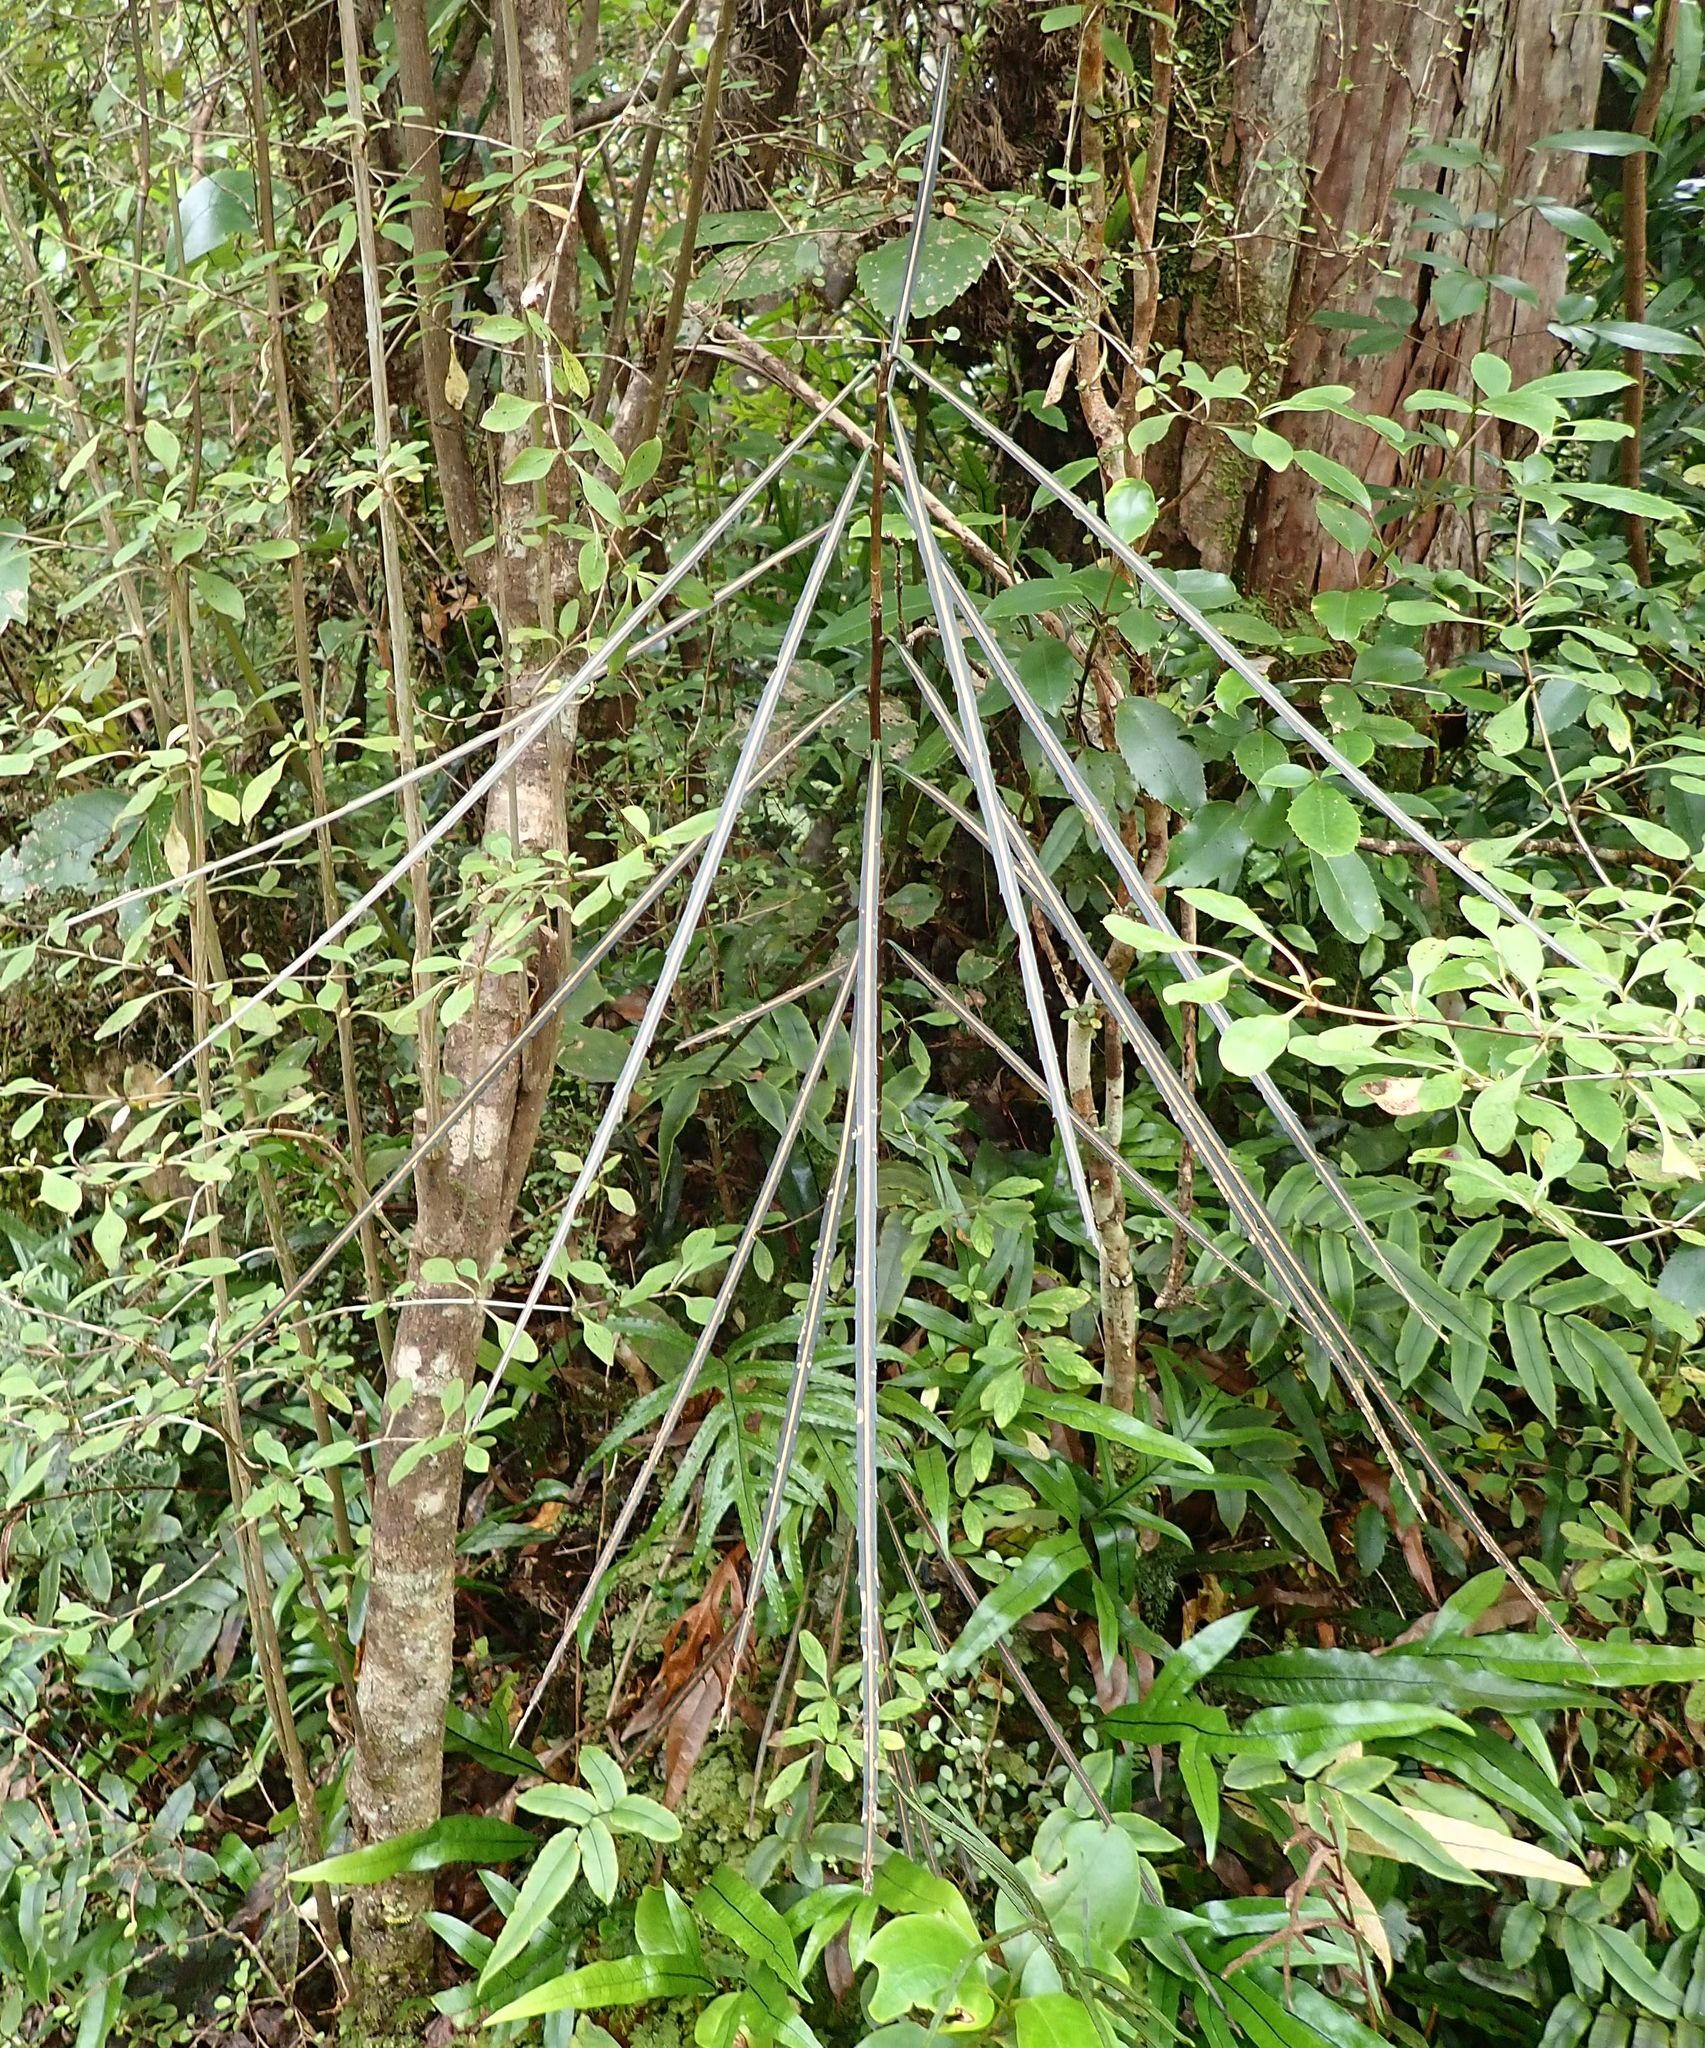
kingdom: Plantae
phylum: Tracheophyta
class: Magnoliopsida
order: Apiales
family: Araliaceae
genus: Pseudopanax
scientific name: Pseudopanax crassifolius
